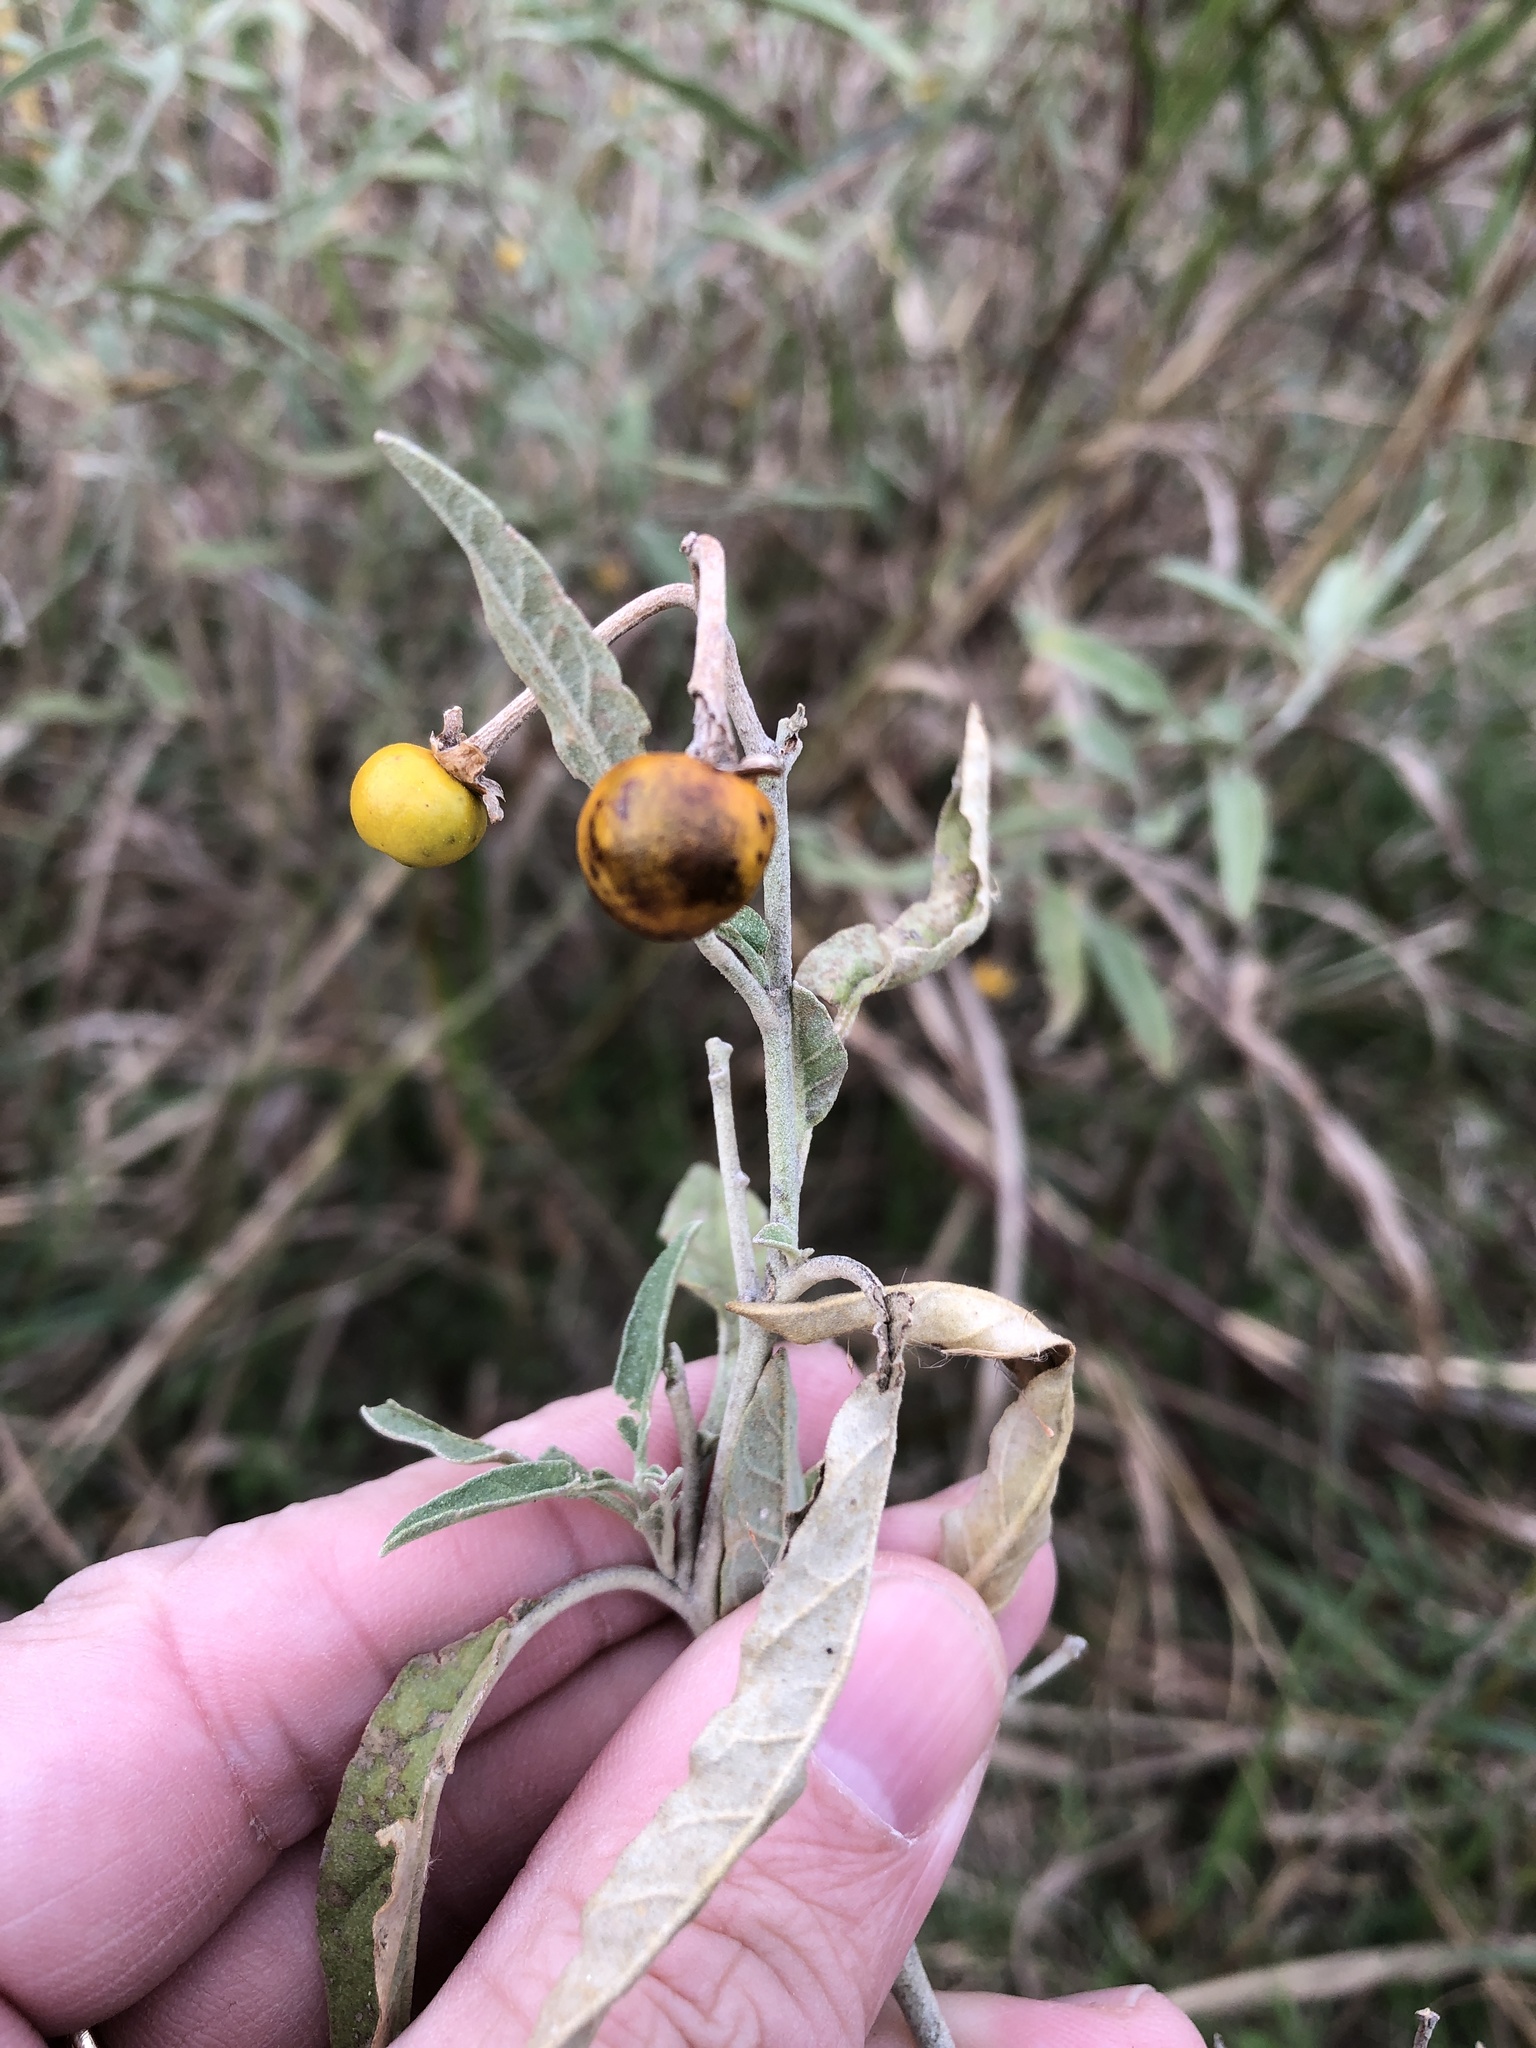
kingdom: Plantae
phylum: Tracheophyta
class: Magnoliopsida
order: Solanales
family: Solanaceae
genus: Solanum
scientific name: Solanum elaeagnifolium
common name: Silverleaf nightshade
